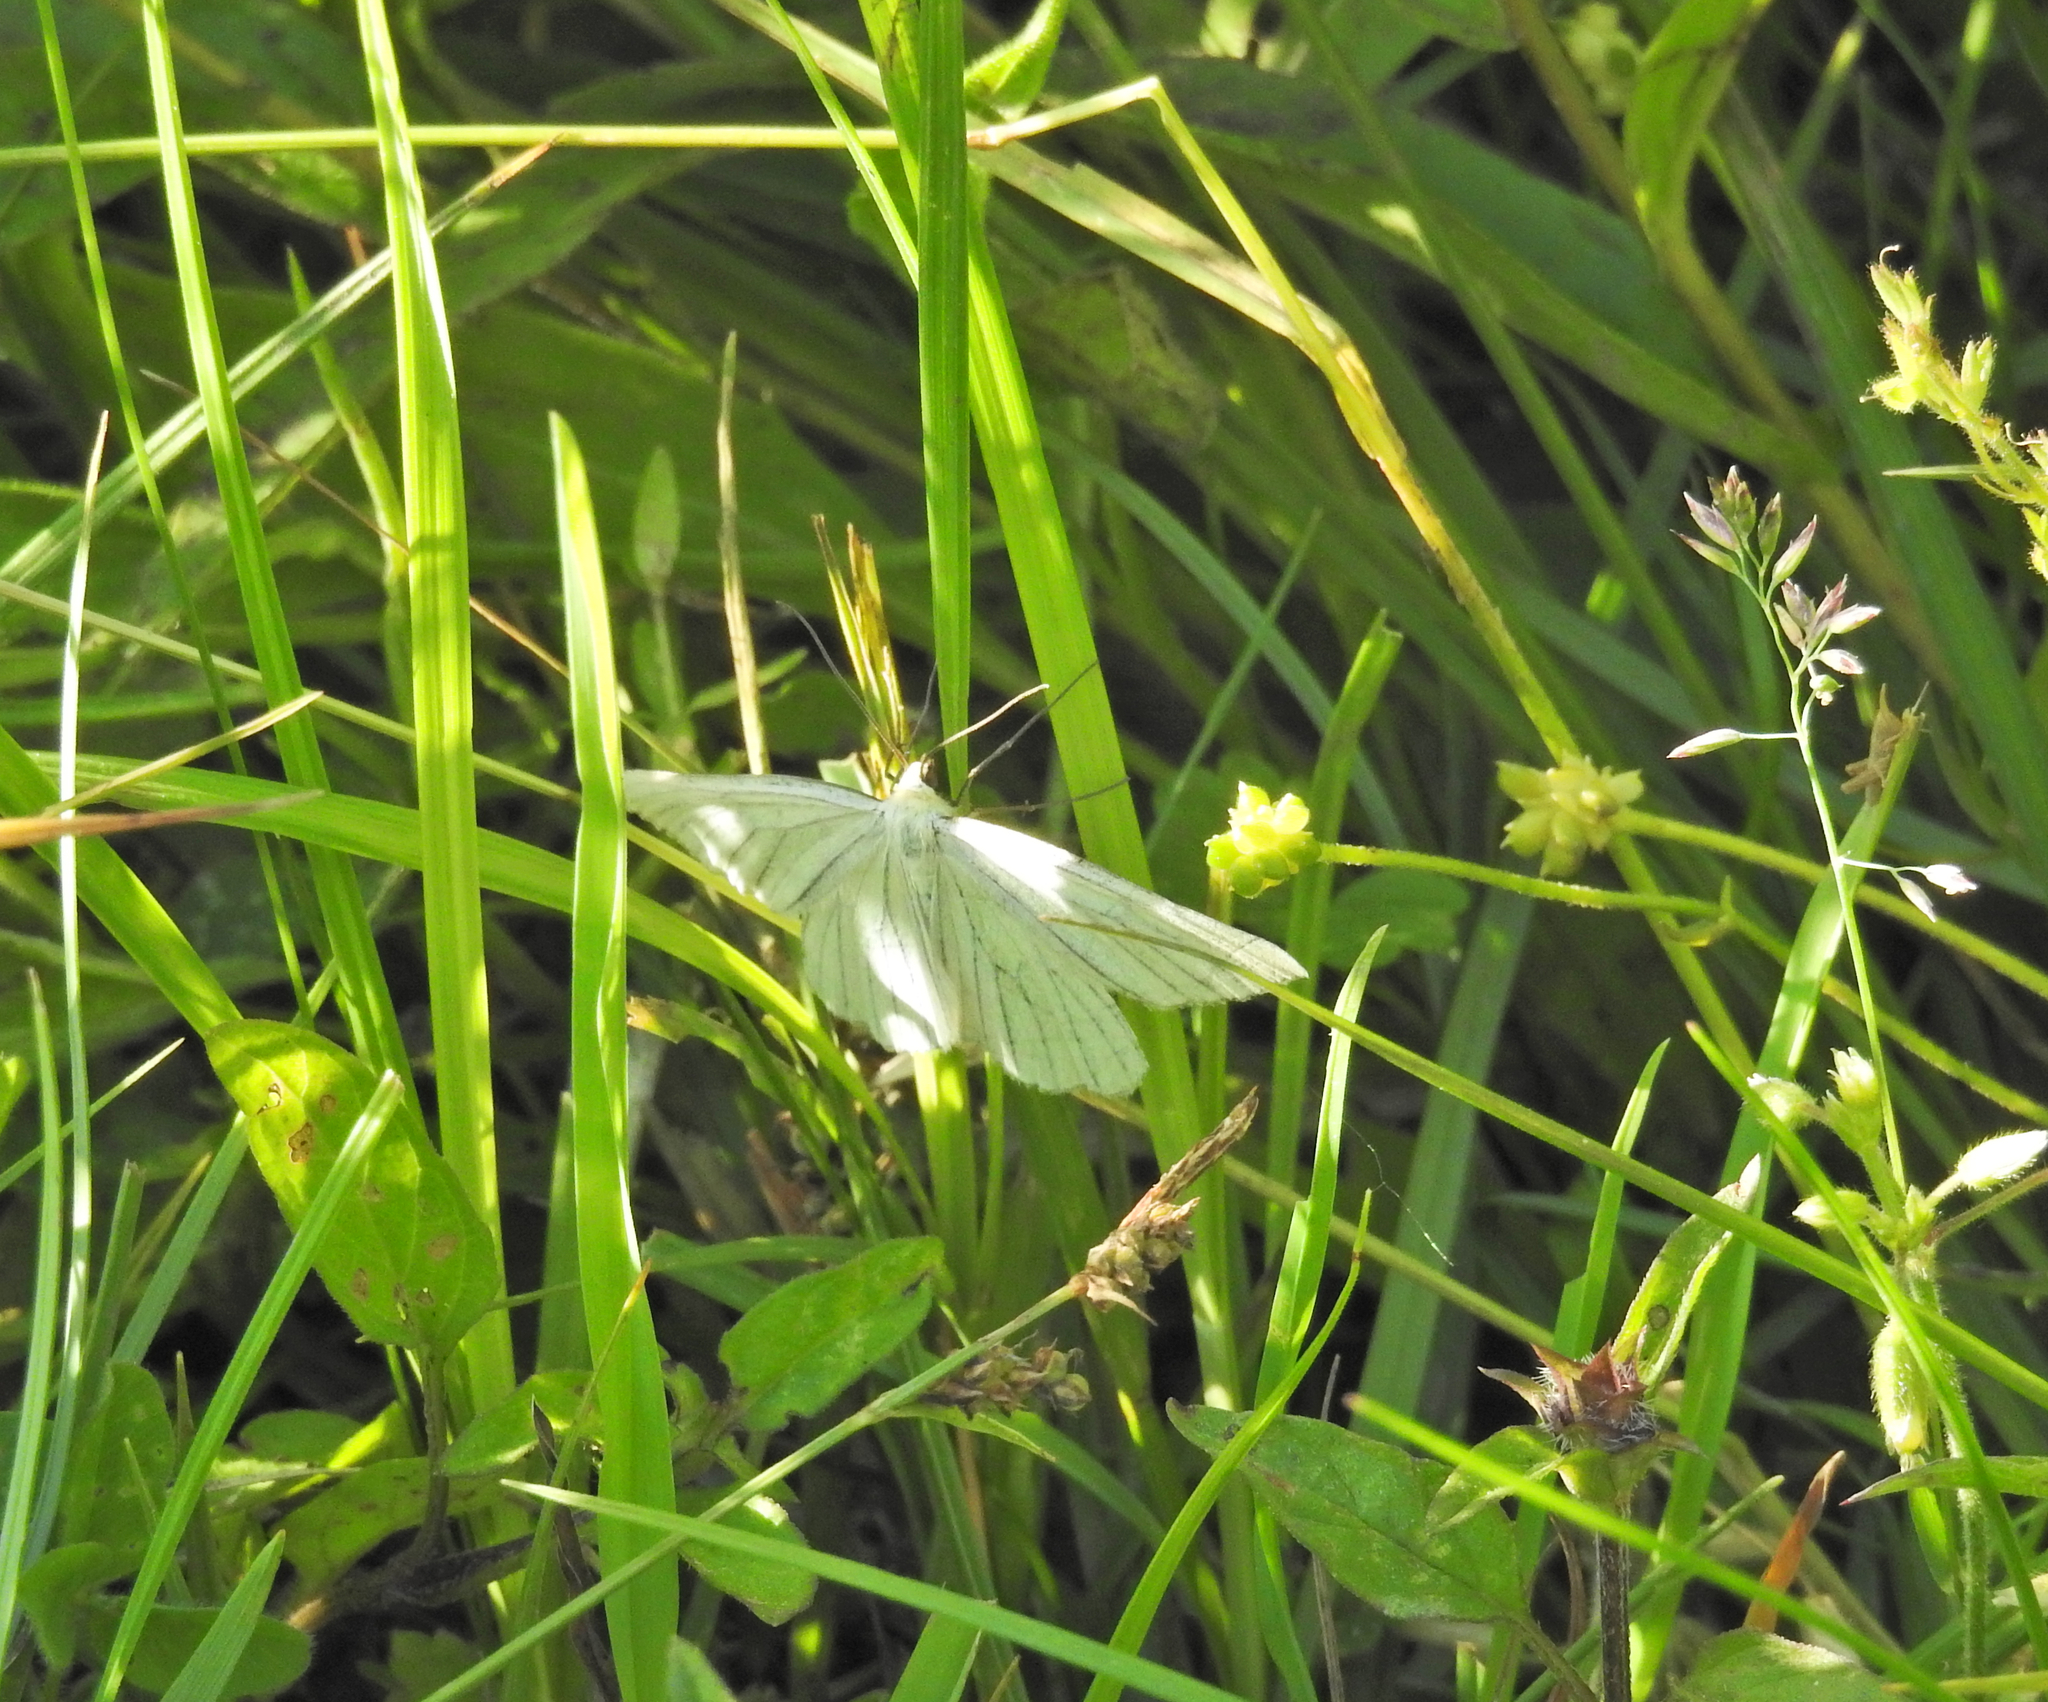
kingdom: Animalia
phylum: Arthropoda
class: Insecta
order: Lepidoptera
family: Geometridae
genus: Siona
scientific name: Siona lineata
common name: Black-veined moth
